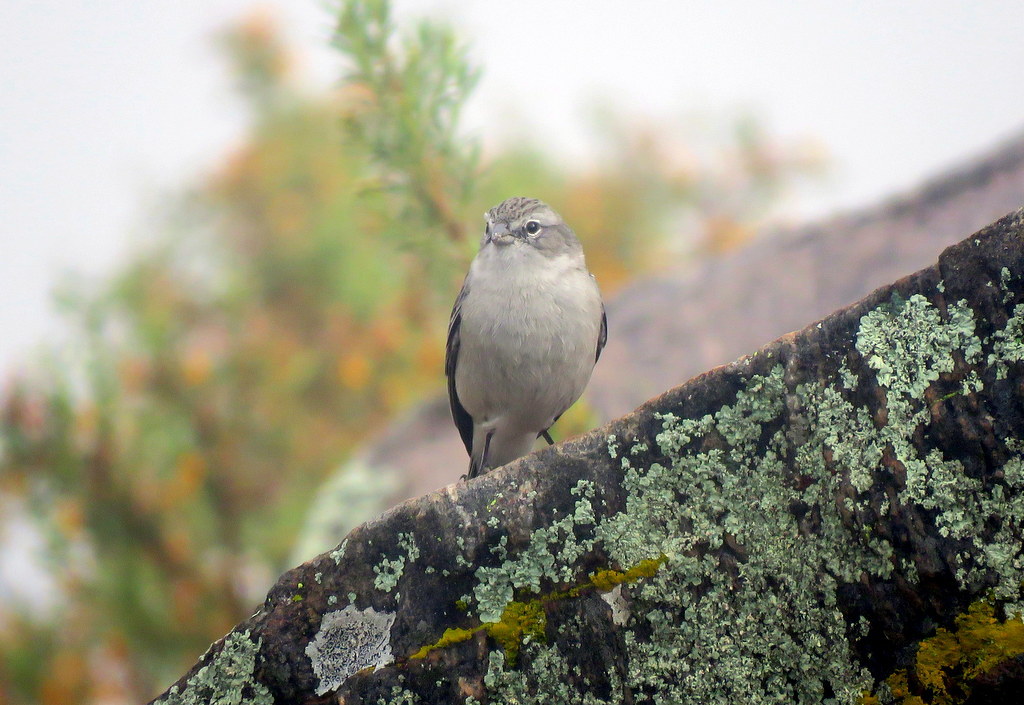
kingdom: Animalia
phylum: Chordata
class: Aves
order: Passeriformes
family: Thraupidae
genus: Geospizopsis
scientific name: Geospizopsis plebejus
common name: Ash-breasted sierra-finch
